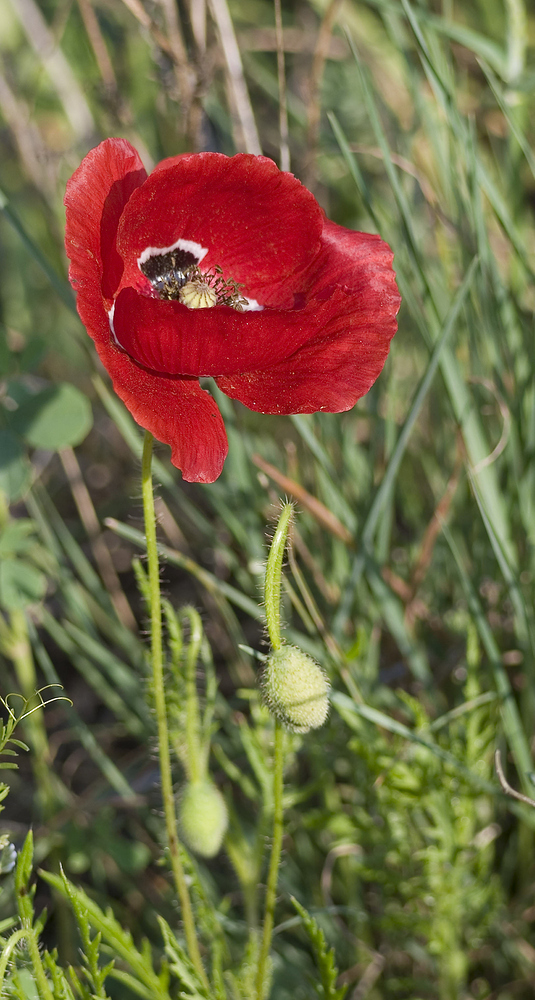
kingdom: Plantae
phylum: Tracheophyta
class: Magnoliopsida
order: Ranunculales
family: Papaveraceae
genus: Papaver
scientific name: Papaver rhoeas
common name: Corn poppy
